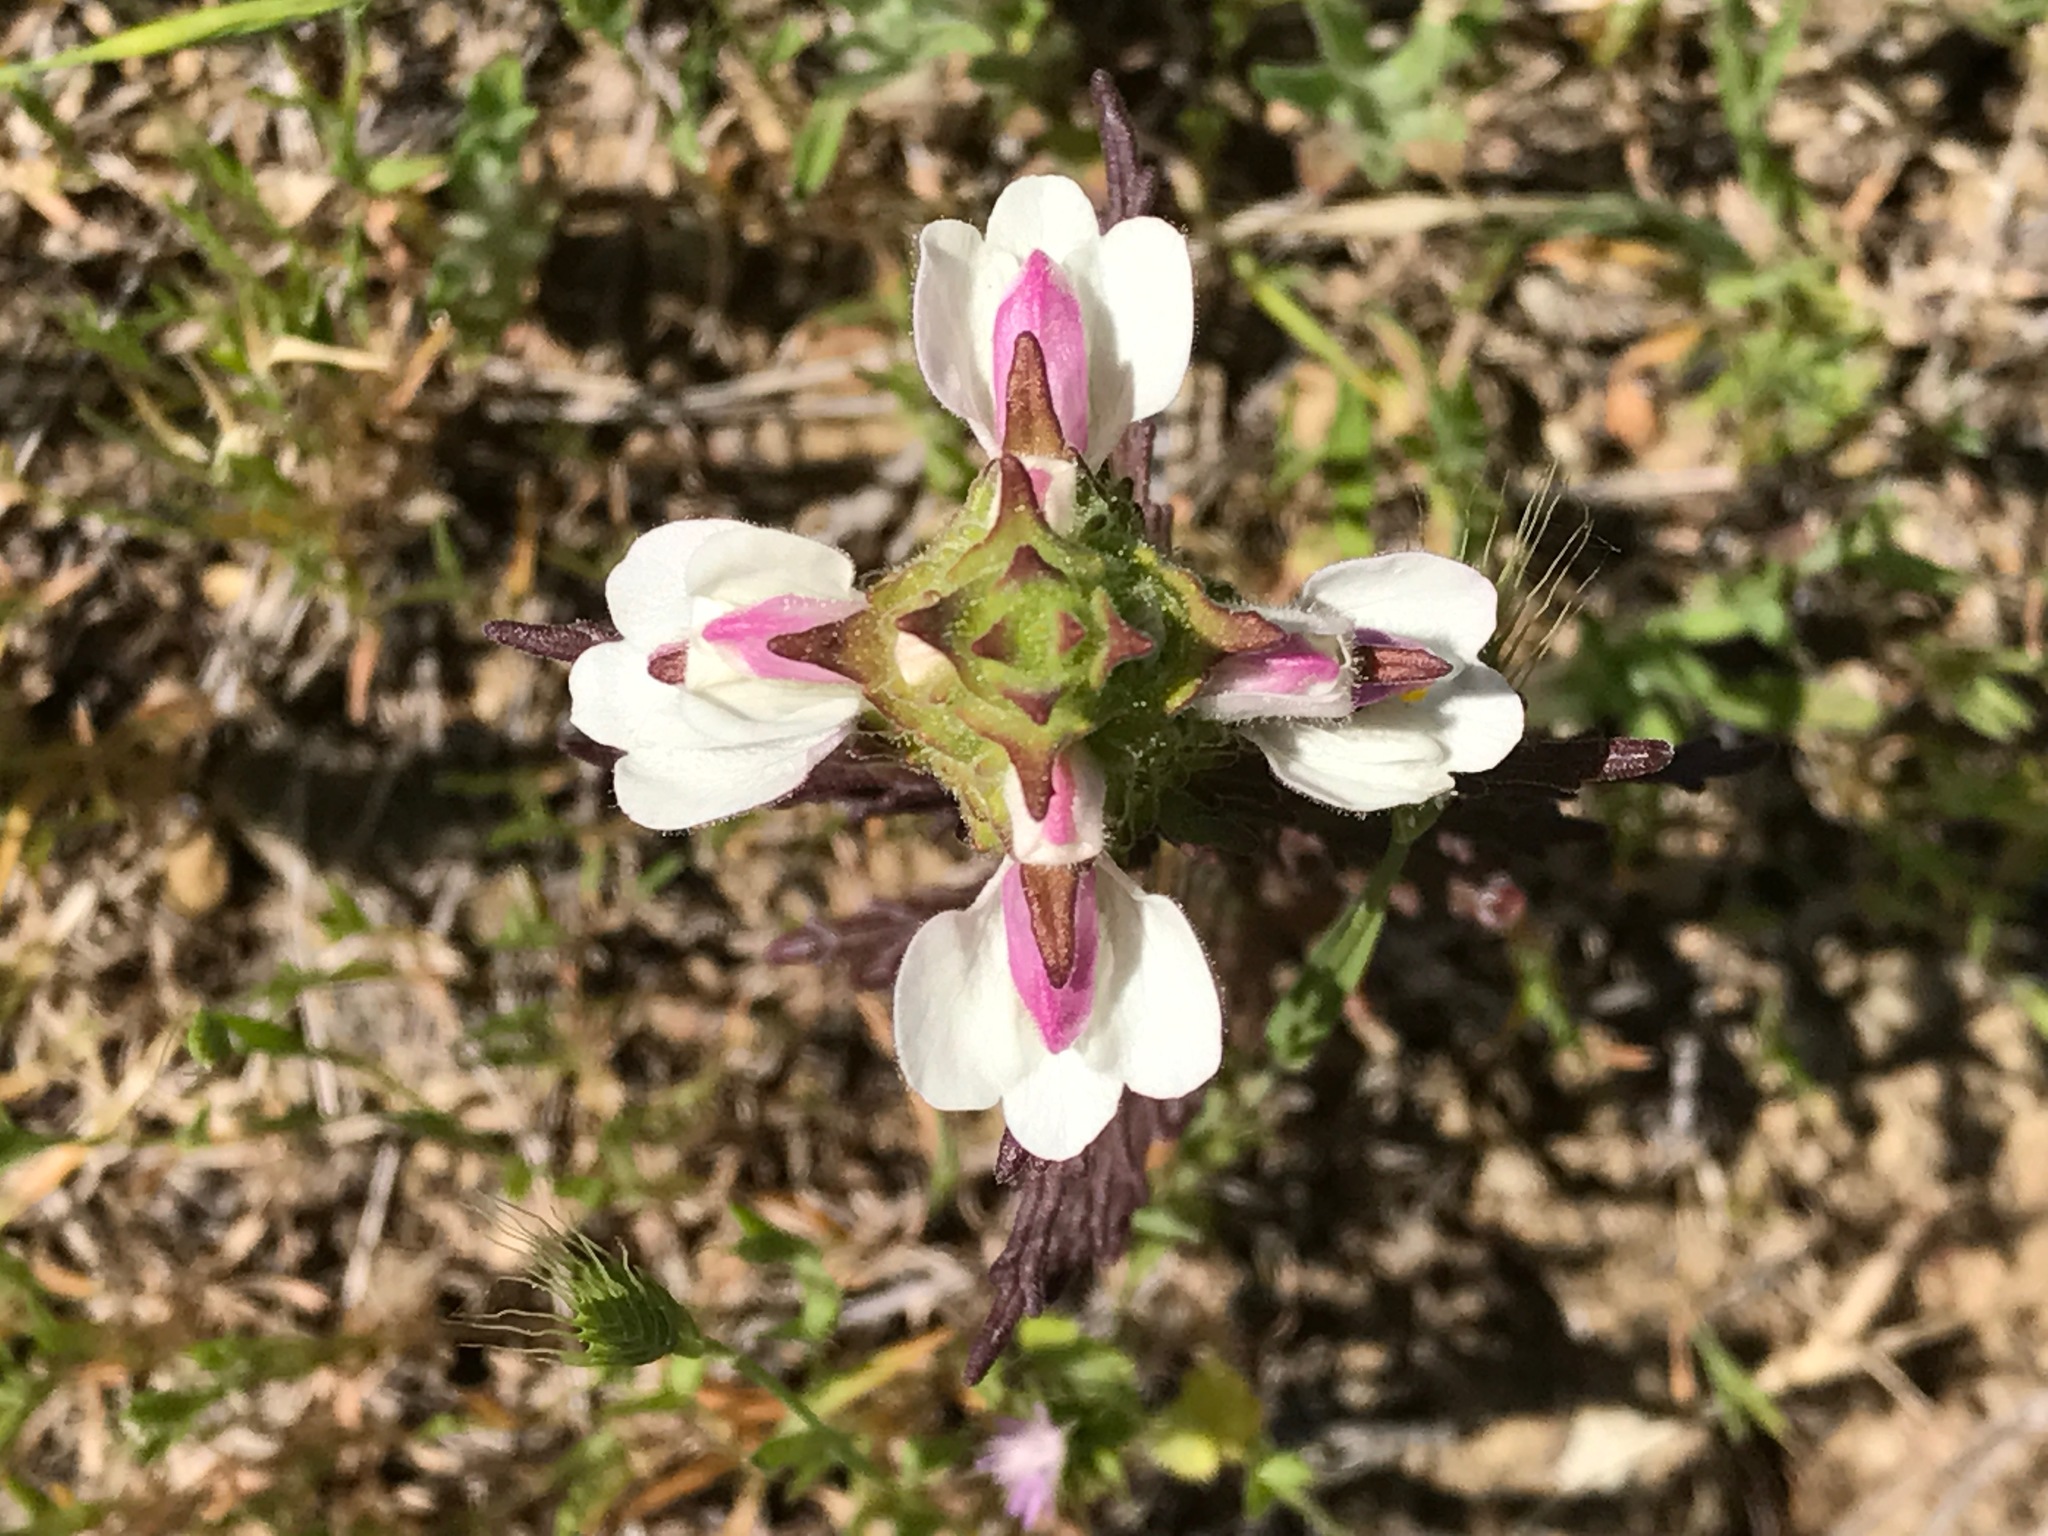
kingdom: Plantae
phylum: Tracheophyta
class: Magnoliopsida
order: Lamiales
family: Orobanchaceae
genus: Bellardia
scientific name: Bellardia trixago
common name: Mediterranean lineseed
